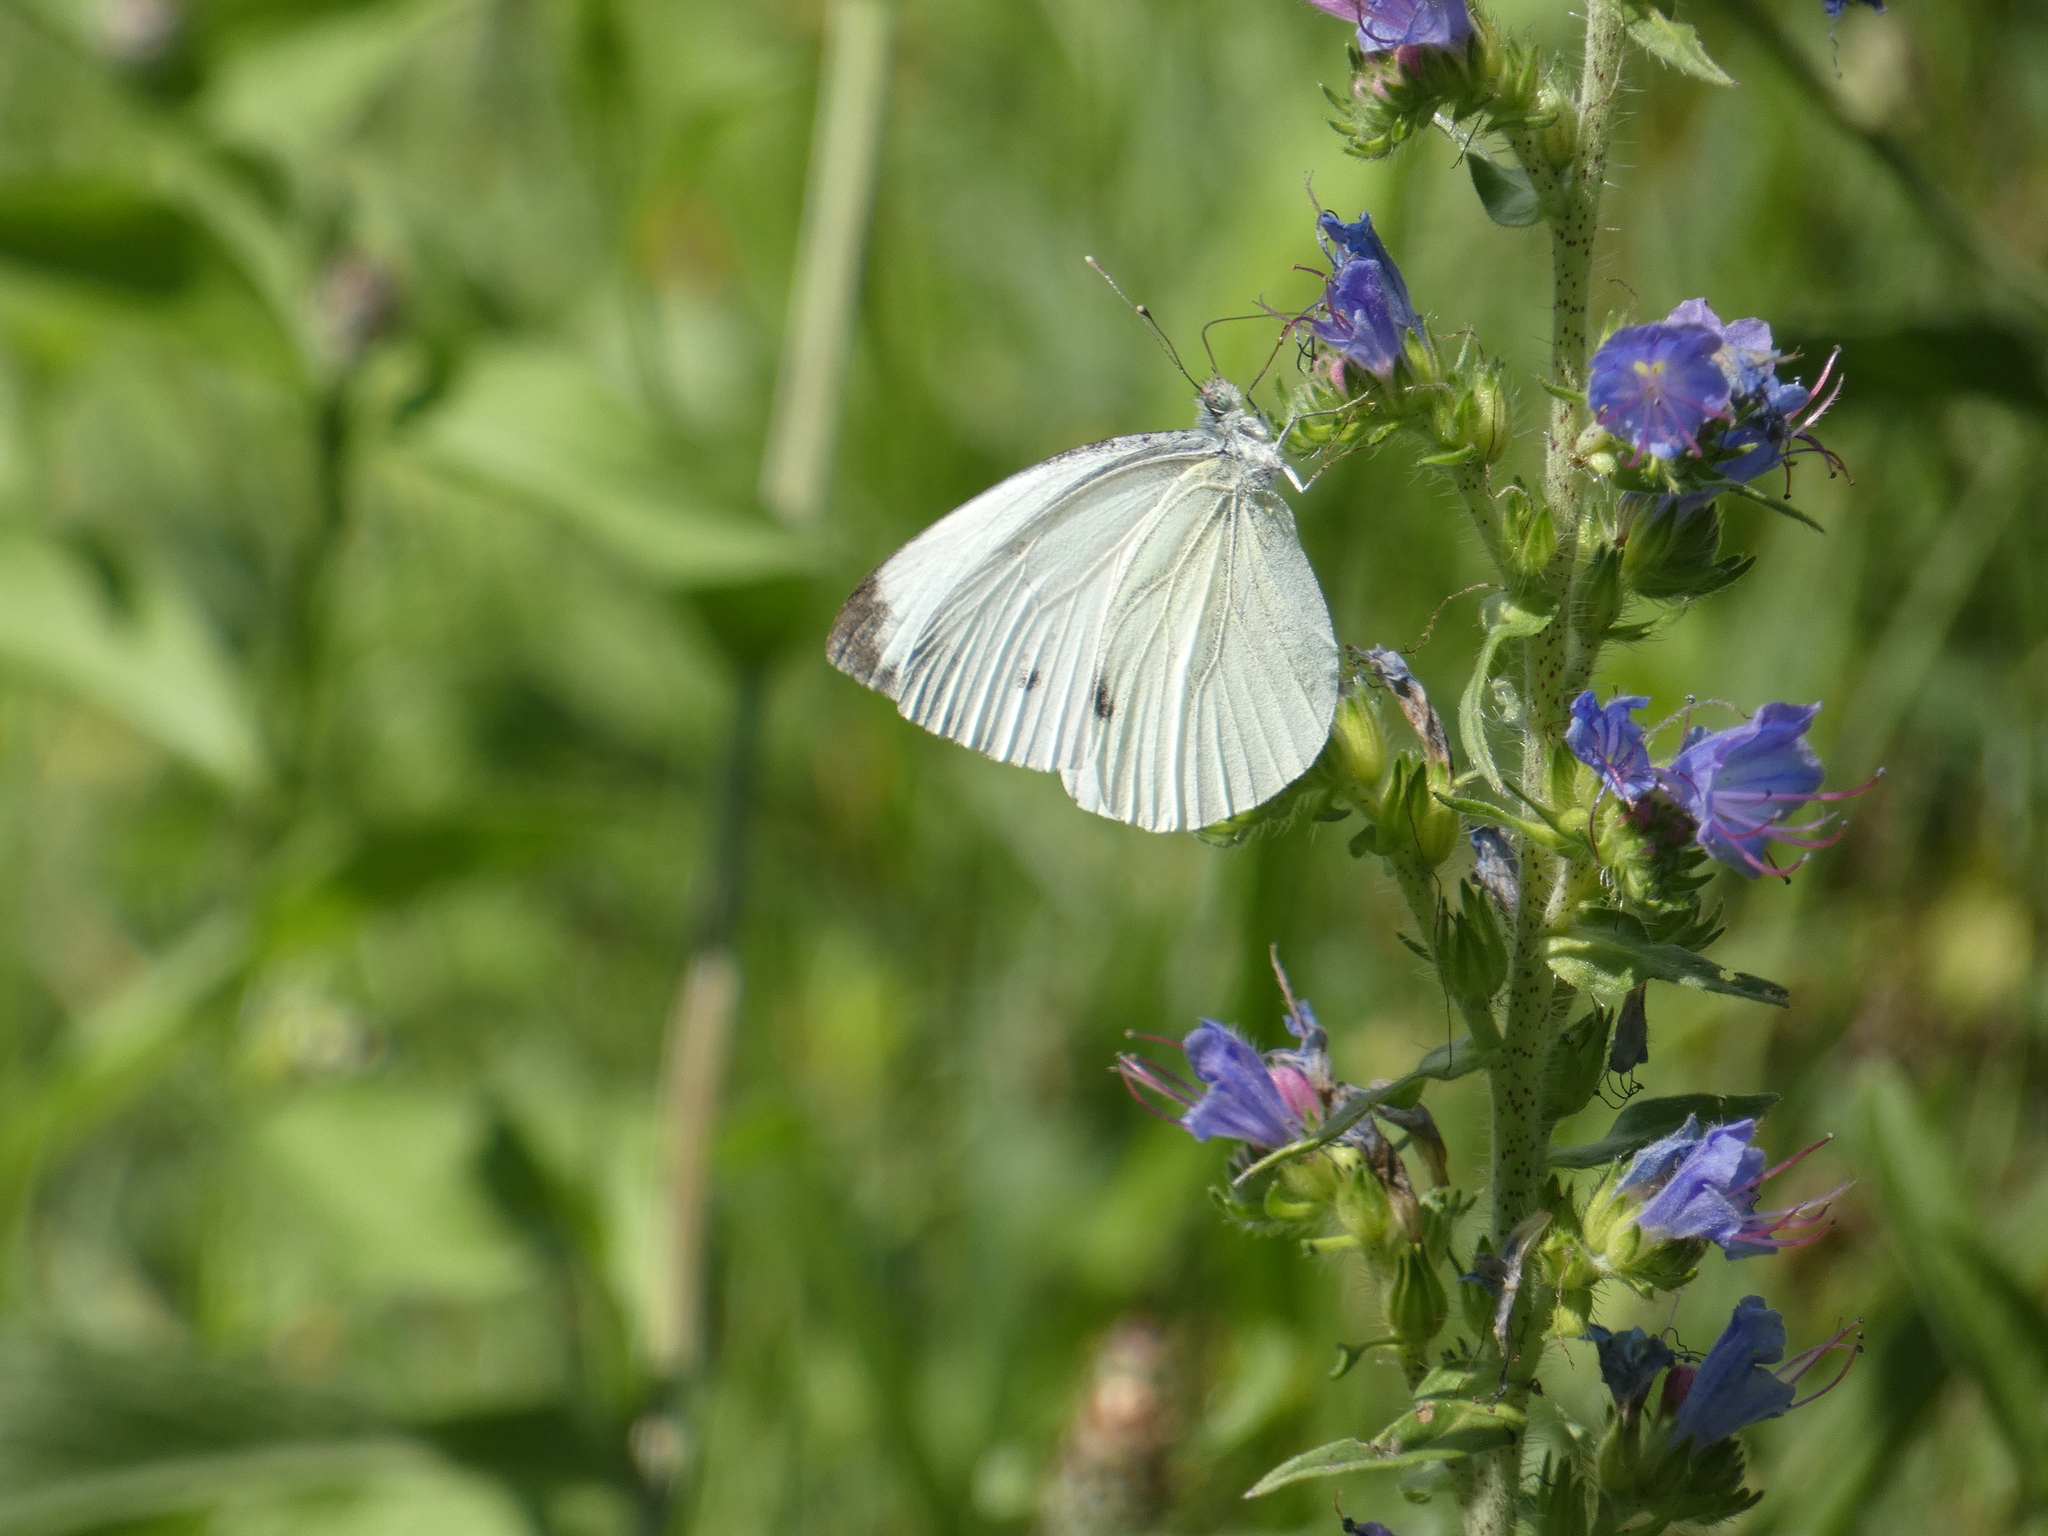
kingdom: Animalia
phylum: Arthropoda
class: Insecta
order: Lepidoptera
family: Pieridae
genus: Pieris
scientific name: Pieris napi
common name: Green-veined white
